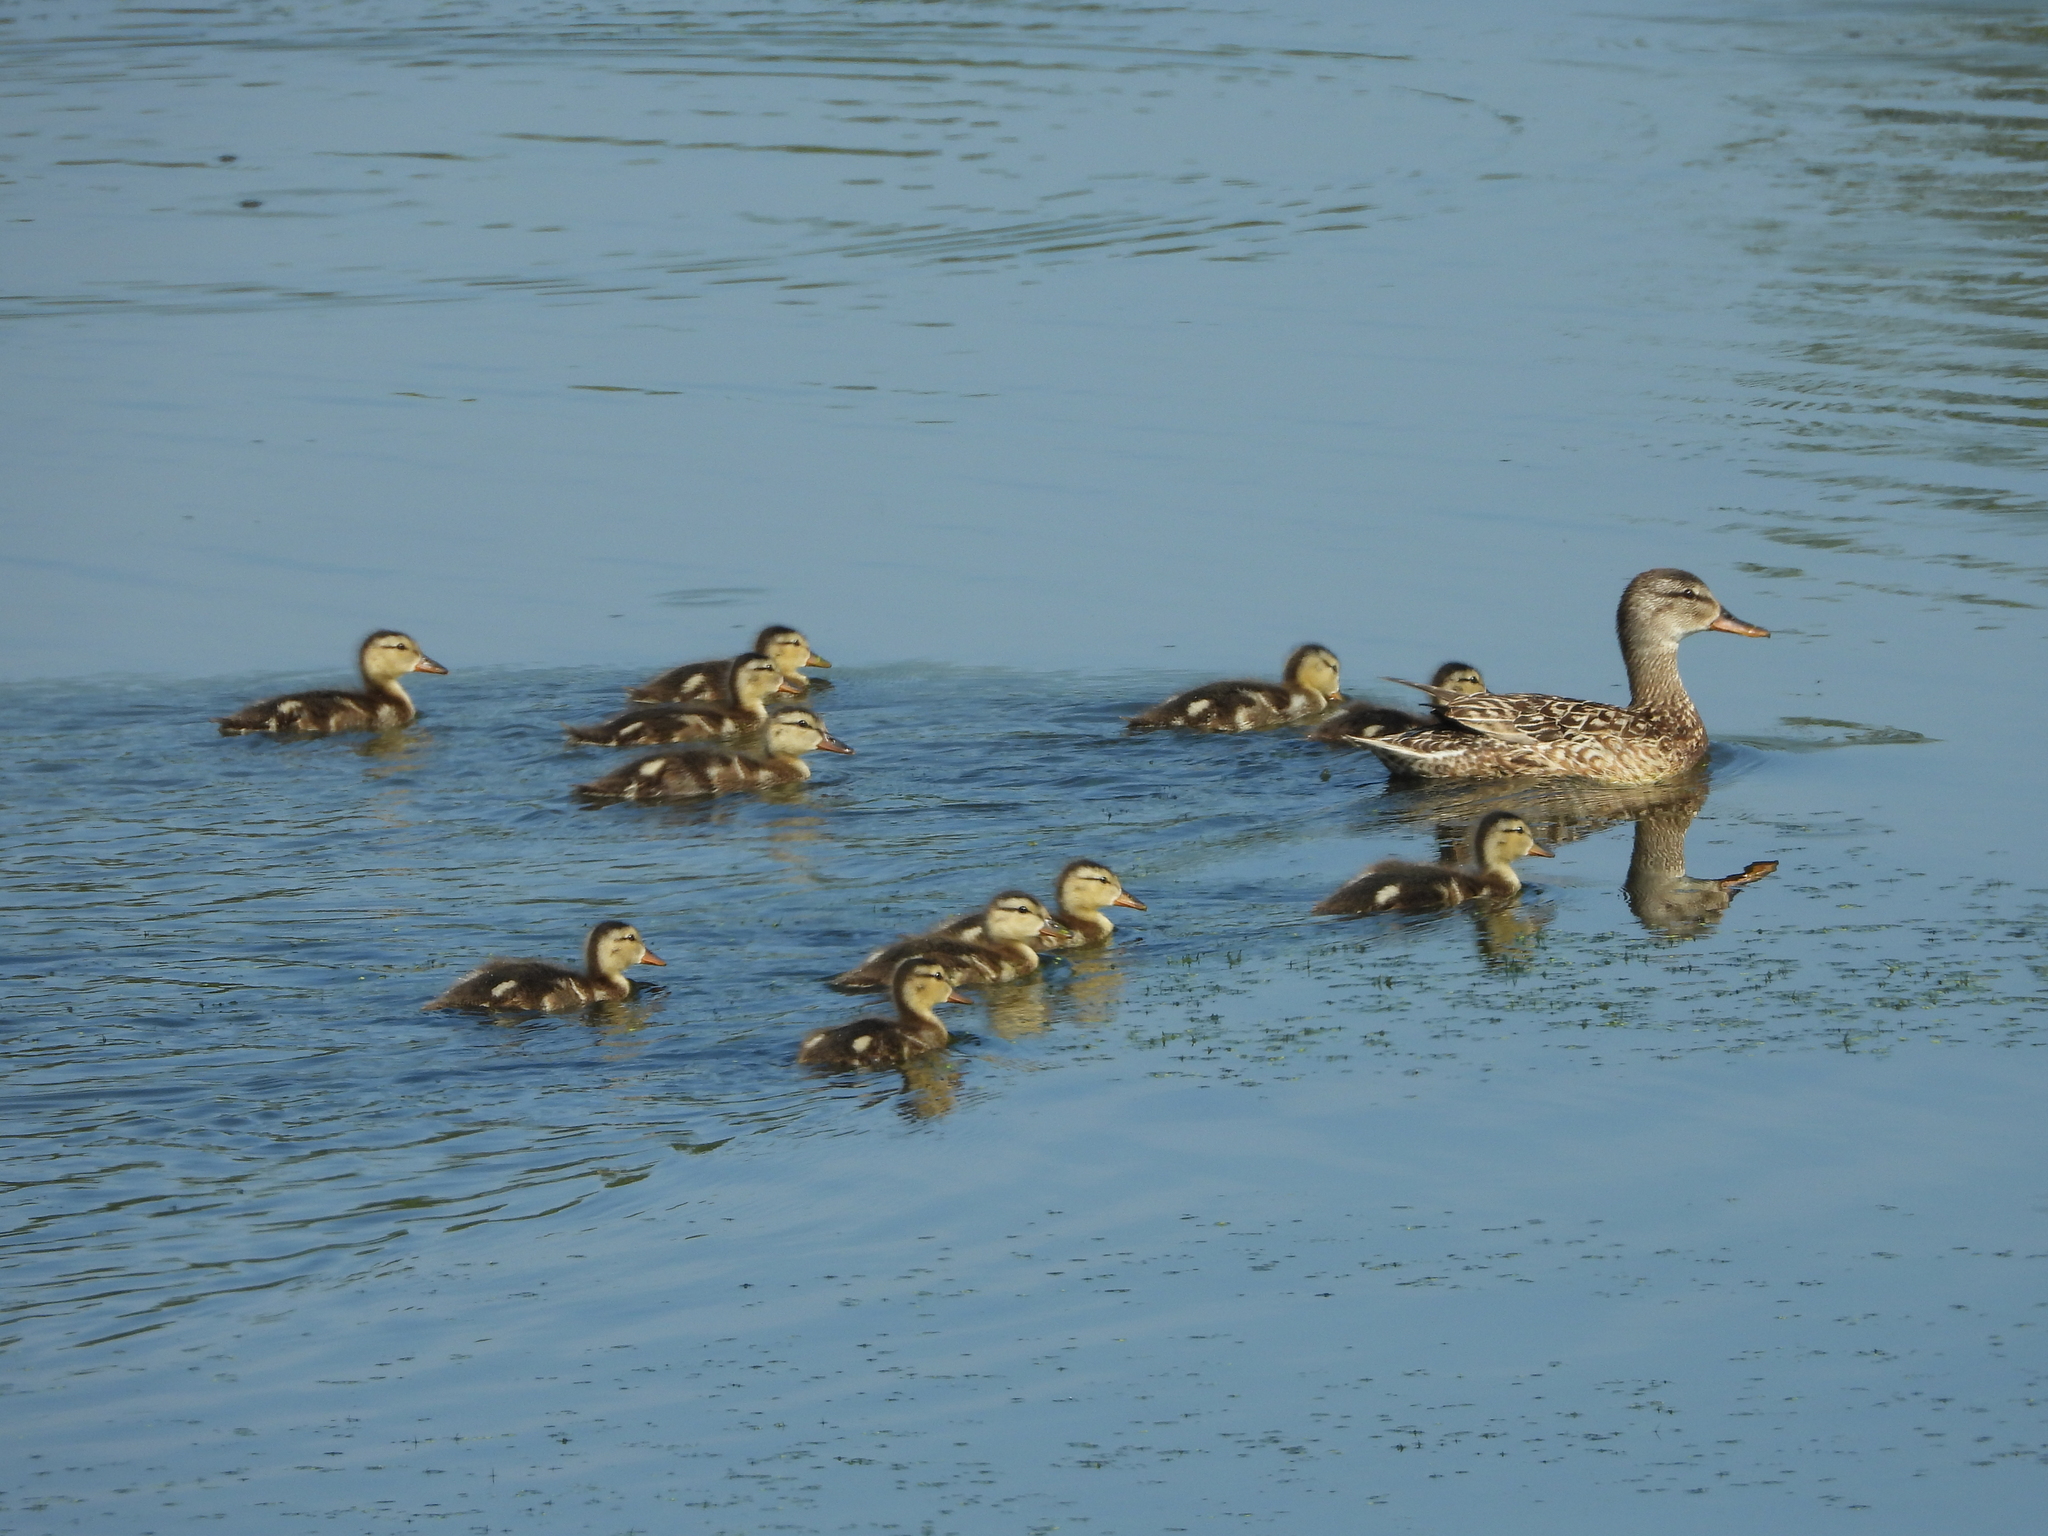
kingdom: Animalia
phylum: Chordata
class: Aves
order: Anseriformes
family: Anatidae
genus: Anas
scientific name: Anas platyrhynchos
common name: Mallard
